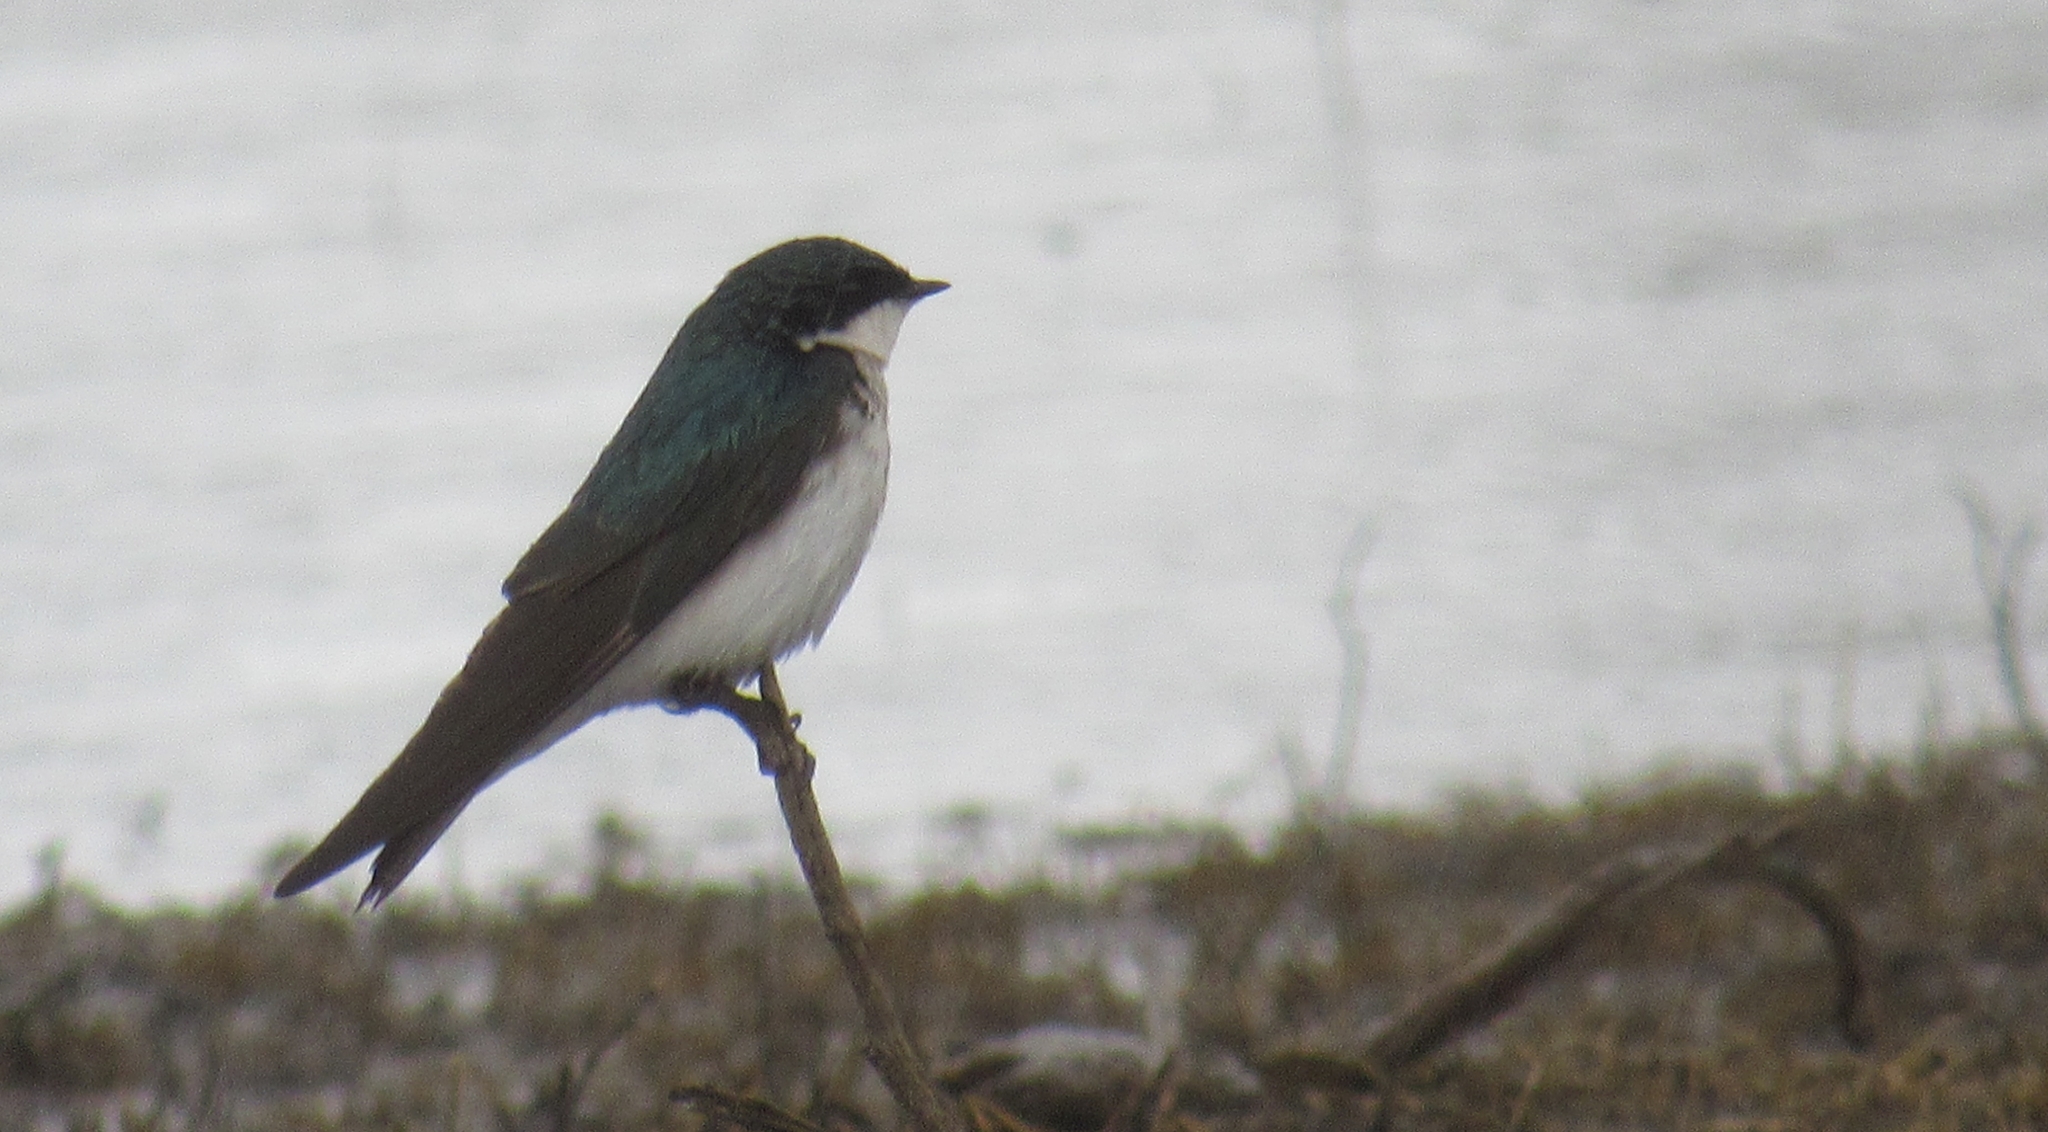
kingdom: Animalia
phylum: Chordata
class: Aves
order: Passeriformes
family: Hirundinidae
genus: Tachycineta
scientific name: Tachycineta bicolor
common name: Tree swallow
